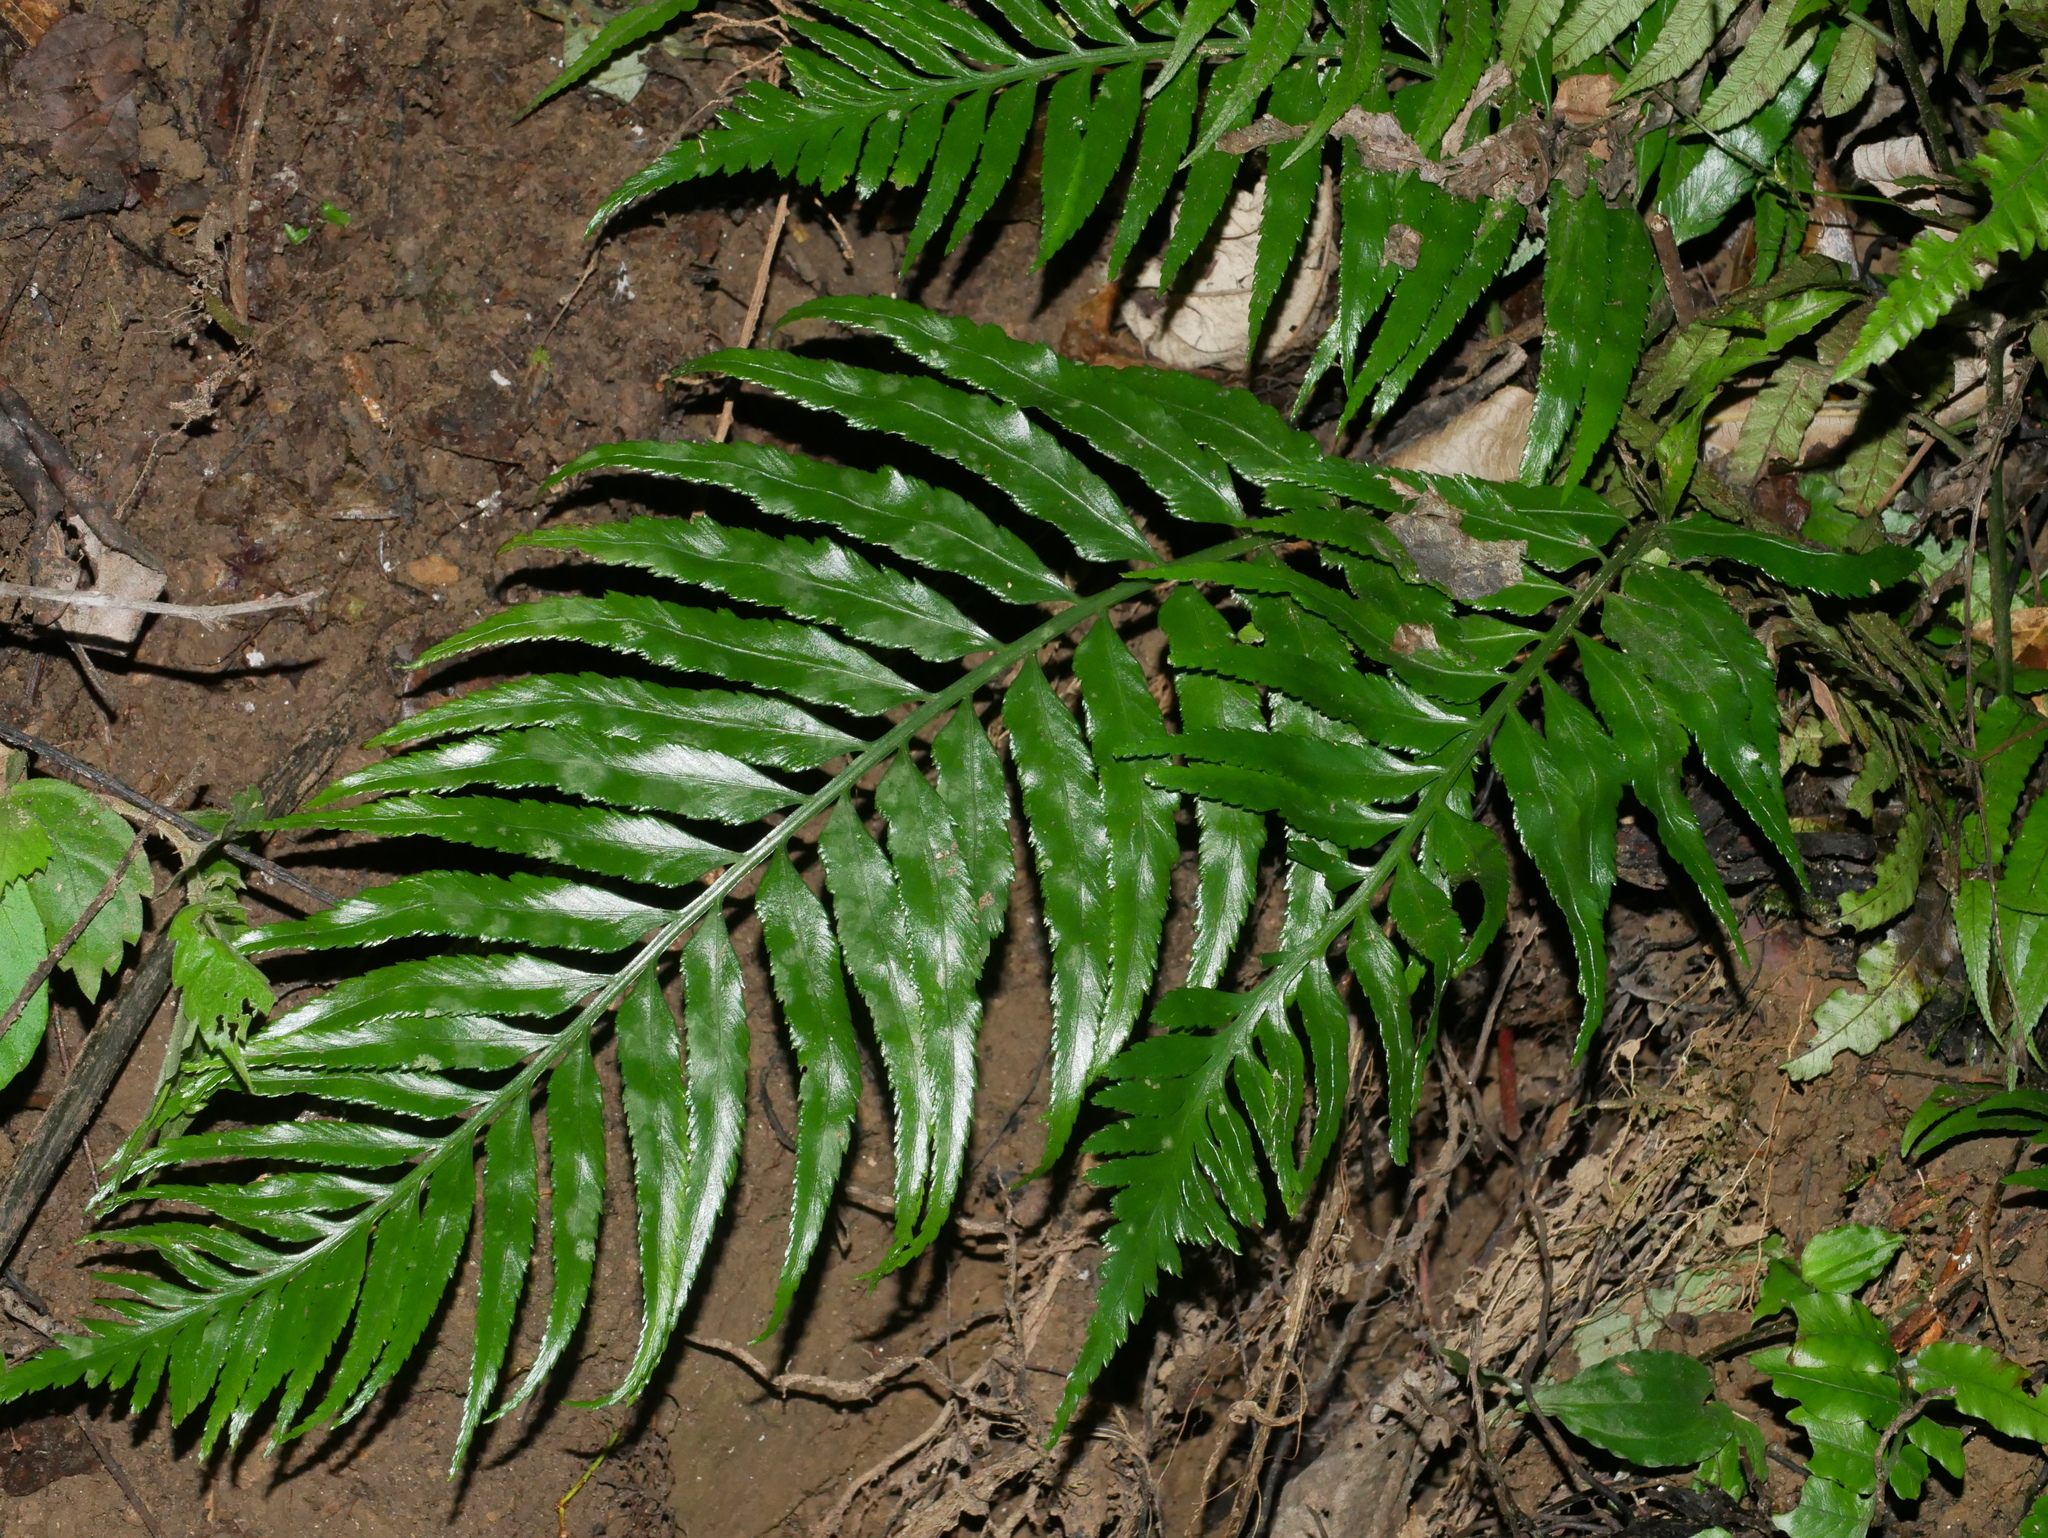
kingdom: Plantae
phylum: Tracheophyta
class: Polypodiopsida
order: Polypodiales
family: Aspleniaceae
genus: Asplenium
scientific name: Asplenium wrightii
